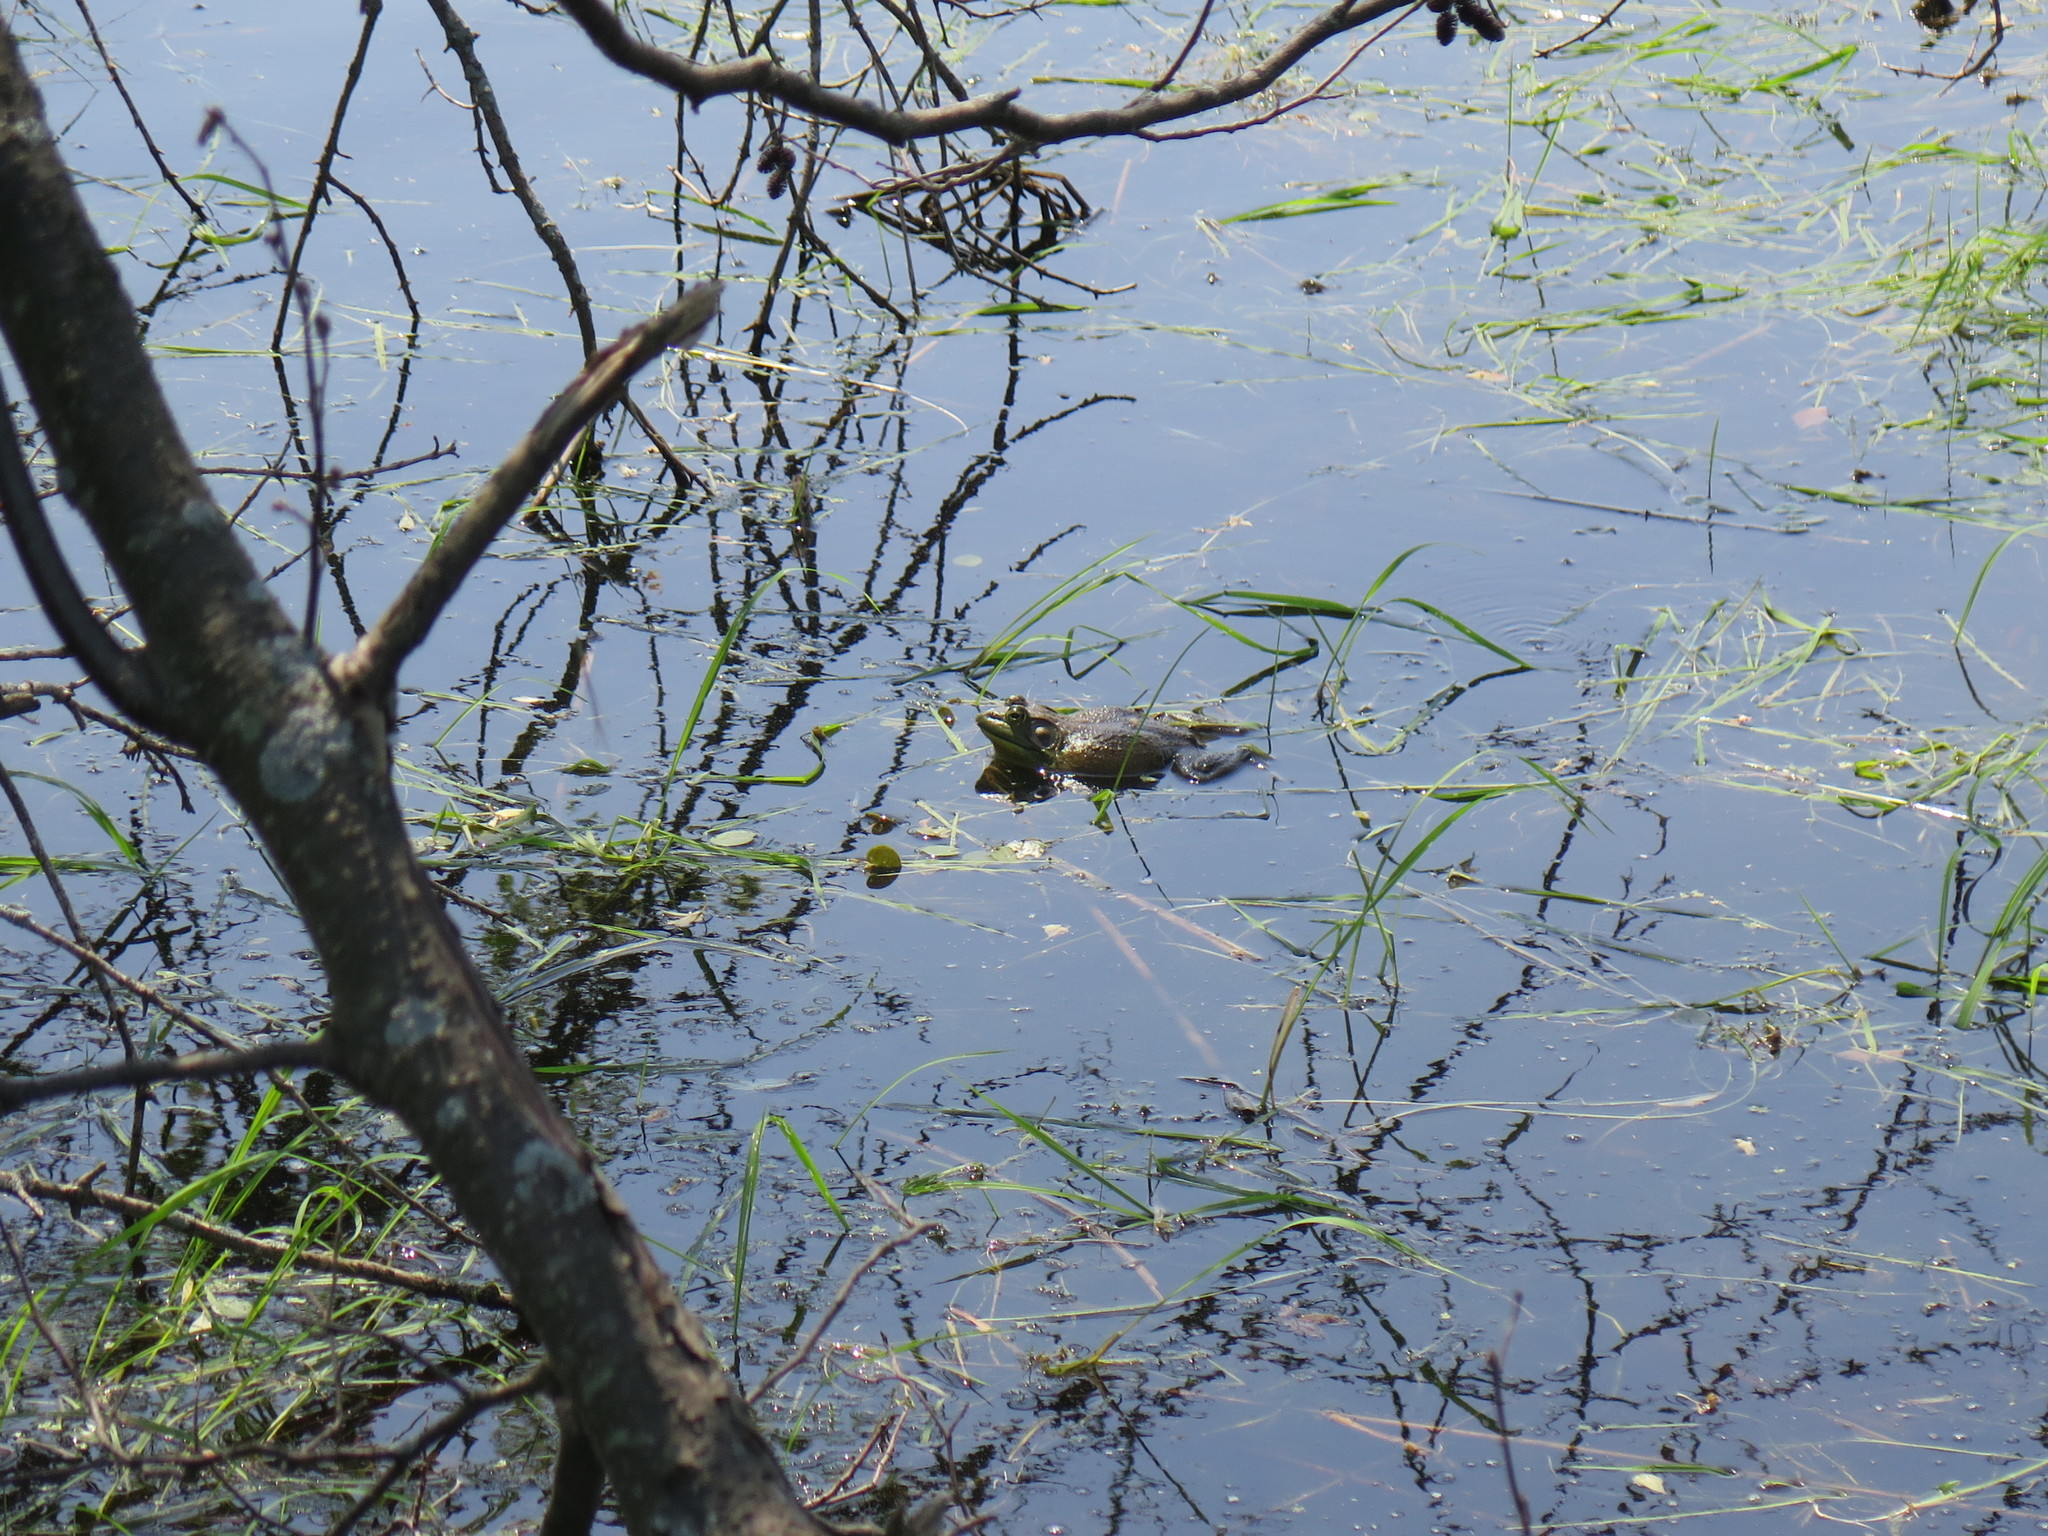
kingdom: Animalia
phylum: Chordata
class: Amphibia
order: Anura
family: Ranidae
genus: Lithobates
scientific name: Lithobates catesbeianus
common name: American bullfrog
